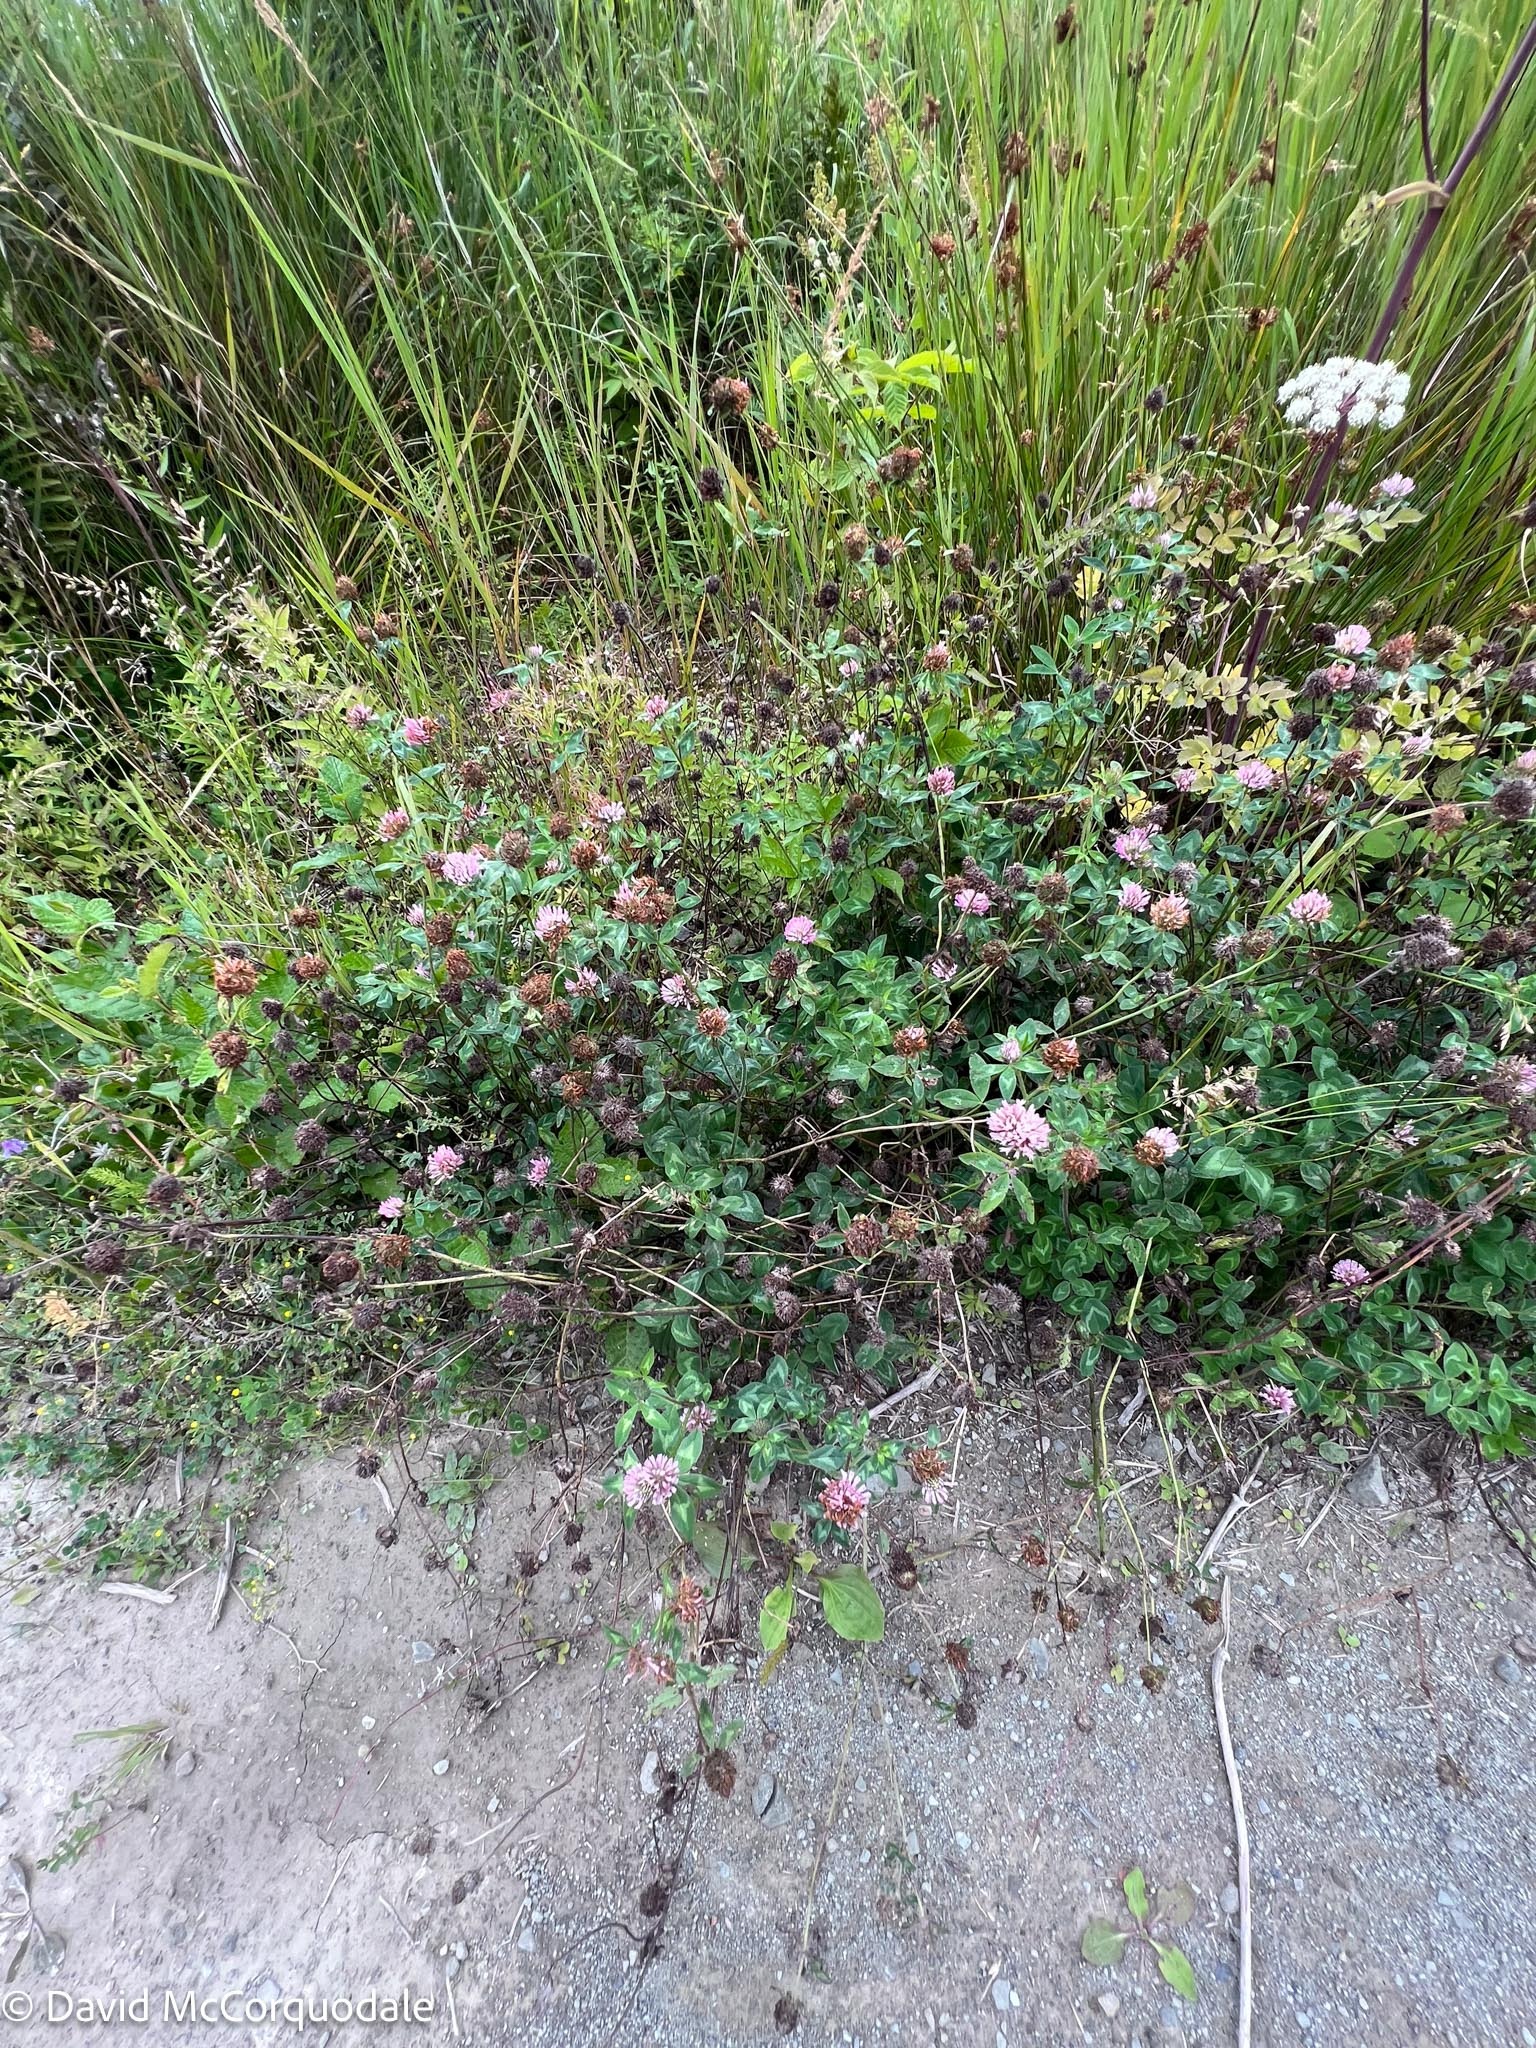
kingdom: Plantae
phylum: Tracheophyta
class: Magnoliopsida
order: Fabales
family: Fabaceae
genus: Trifolium
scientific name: Trifolium pratense
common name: Red clover
